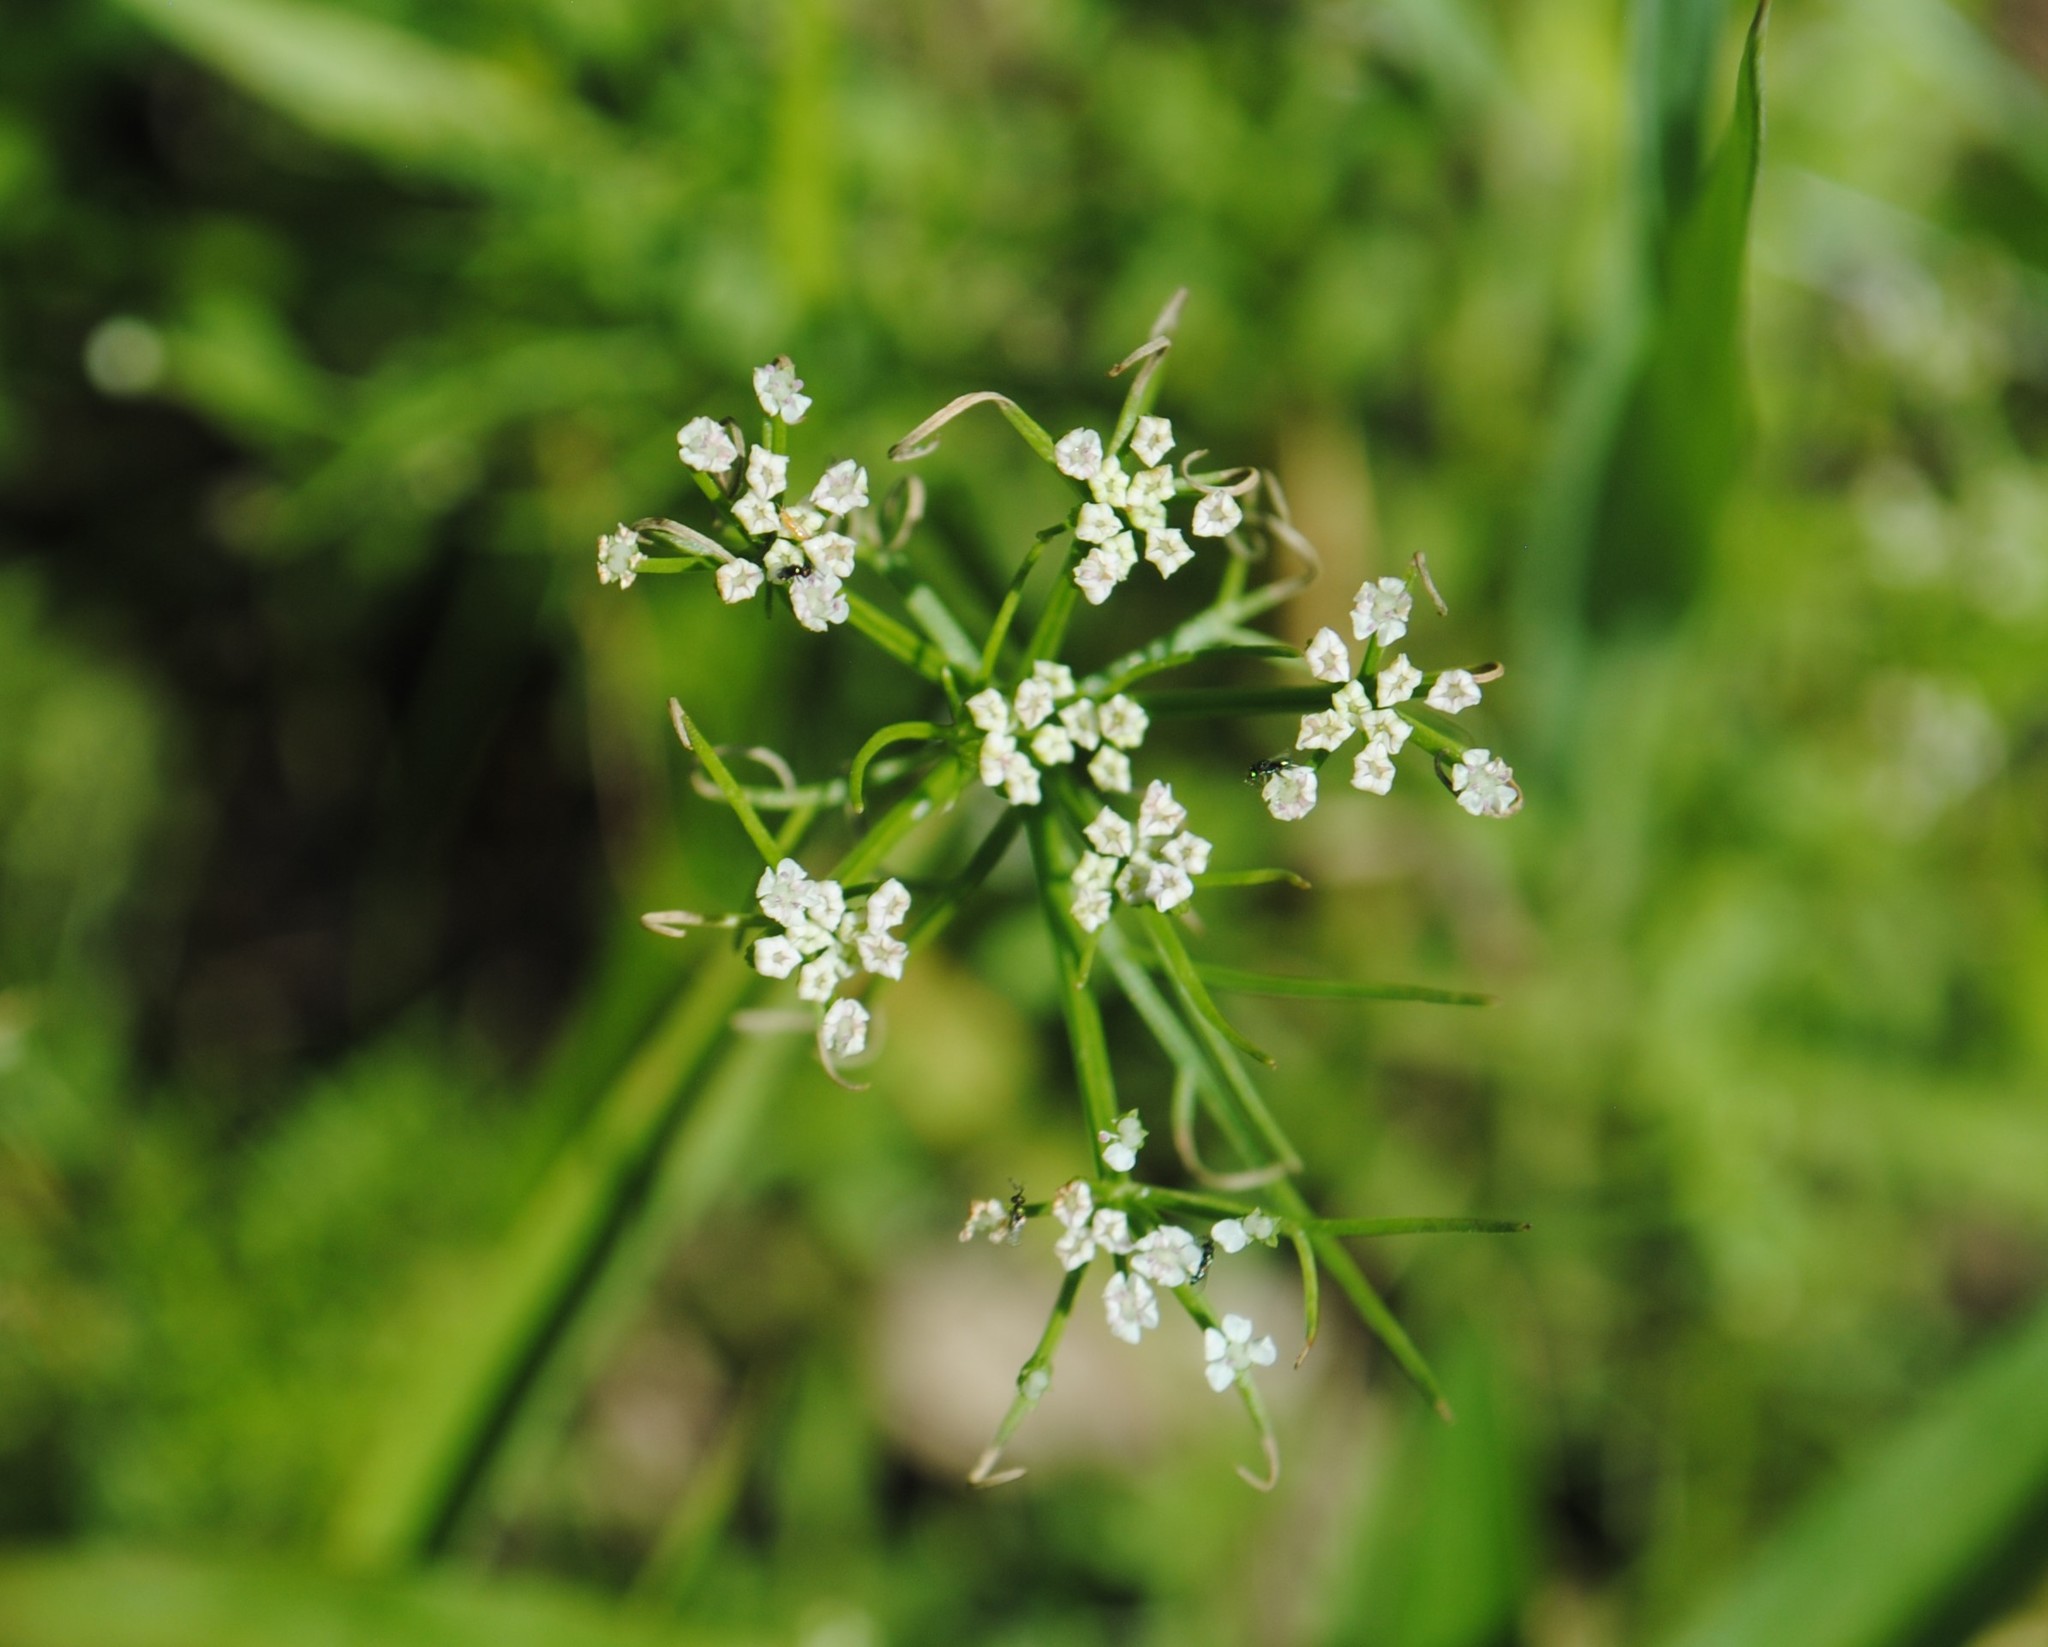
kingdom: Plantae
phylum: Tracheophyta
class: Magnoliopsida
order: Apiales
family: Apiaceae
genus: Ptilimnium
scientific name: Ptilimnium capillaceum
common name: Herbwilliam
